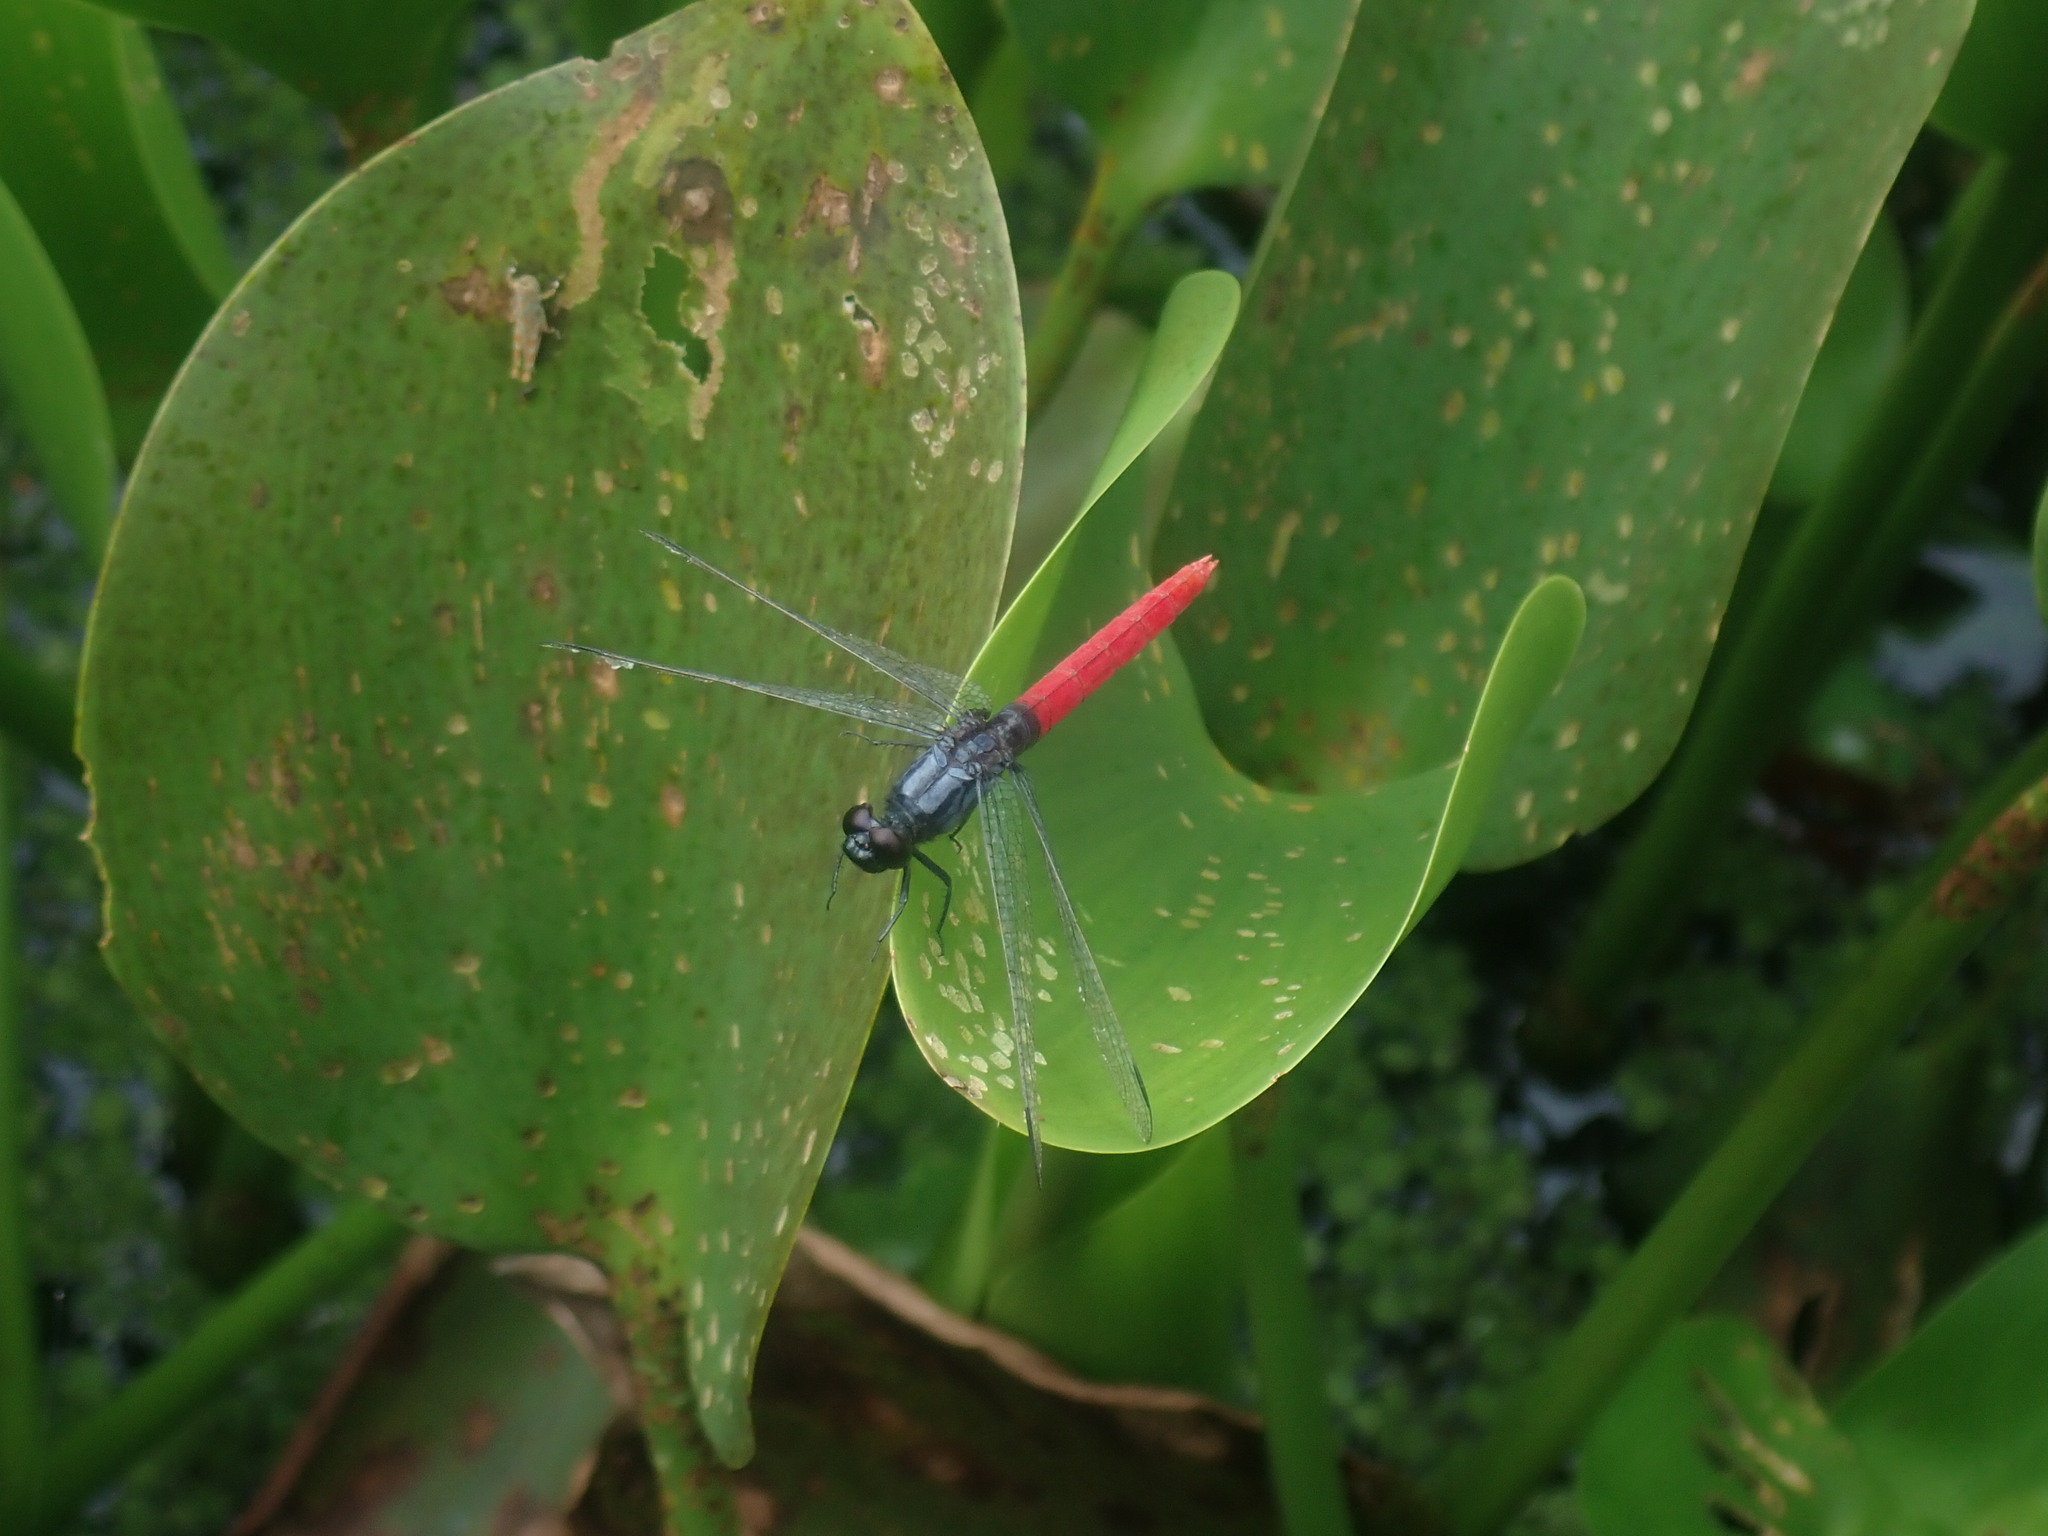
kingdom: Animalia
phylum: Arthropoda
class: Insecta
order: Odonata
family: Libellulidae
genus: Erythemis
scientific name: Erythemis peruviana
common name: Flame-tailed pondhawk
